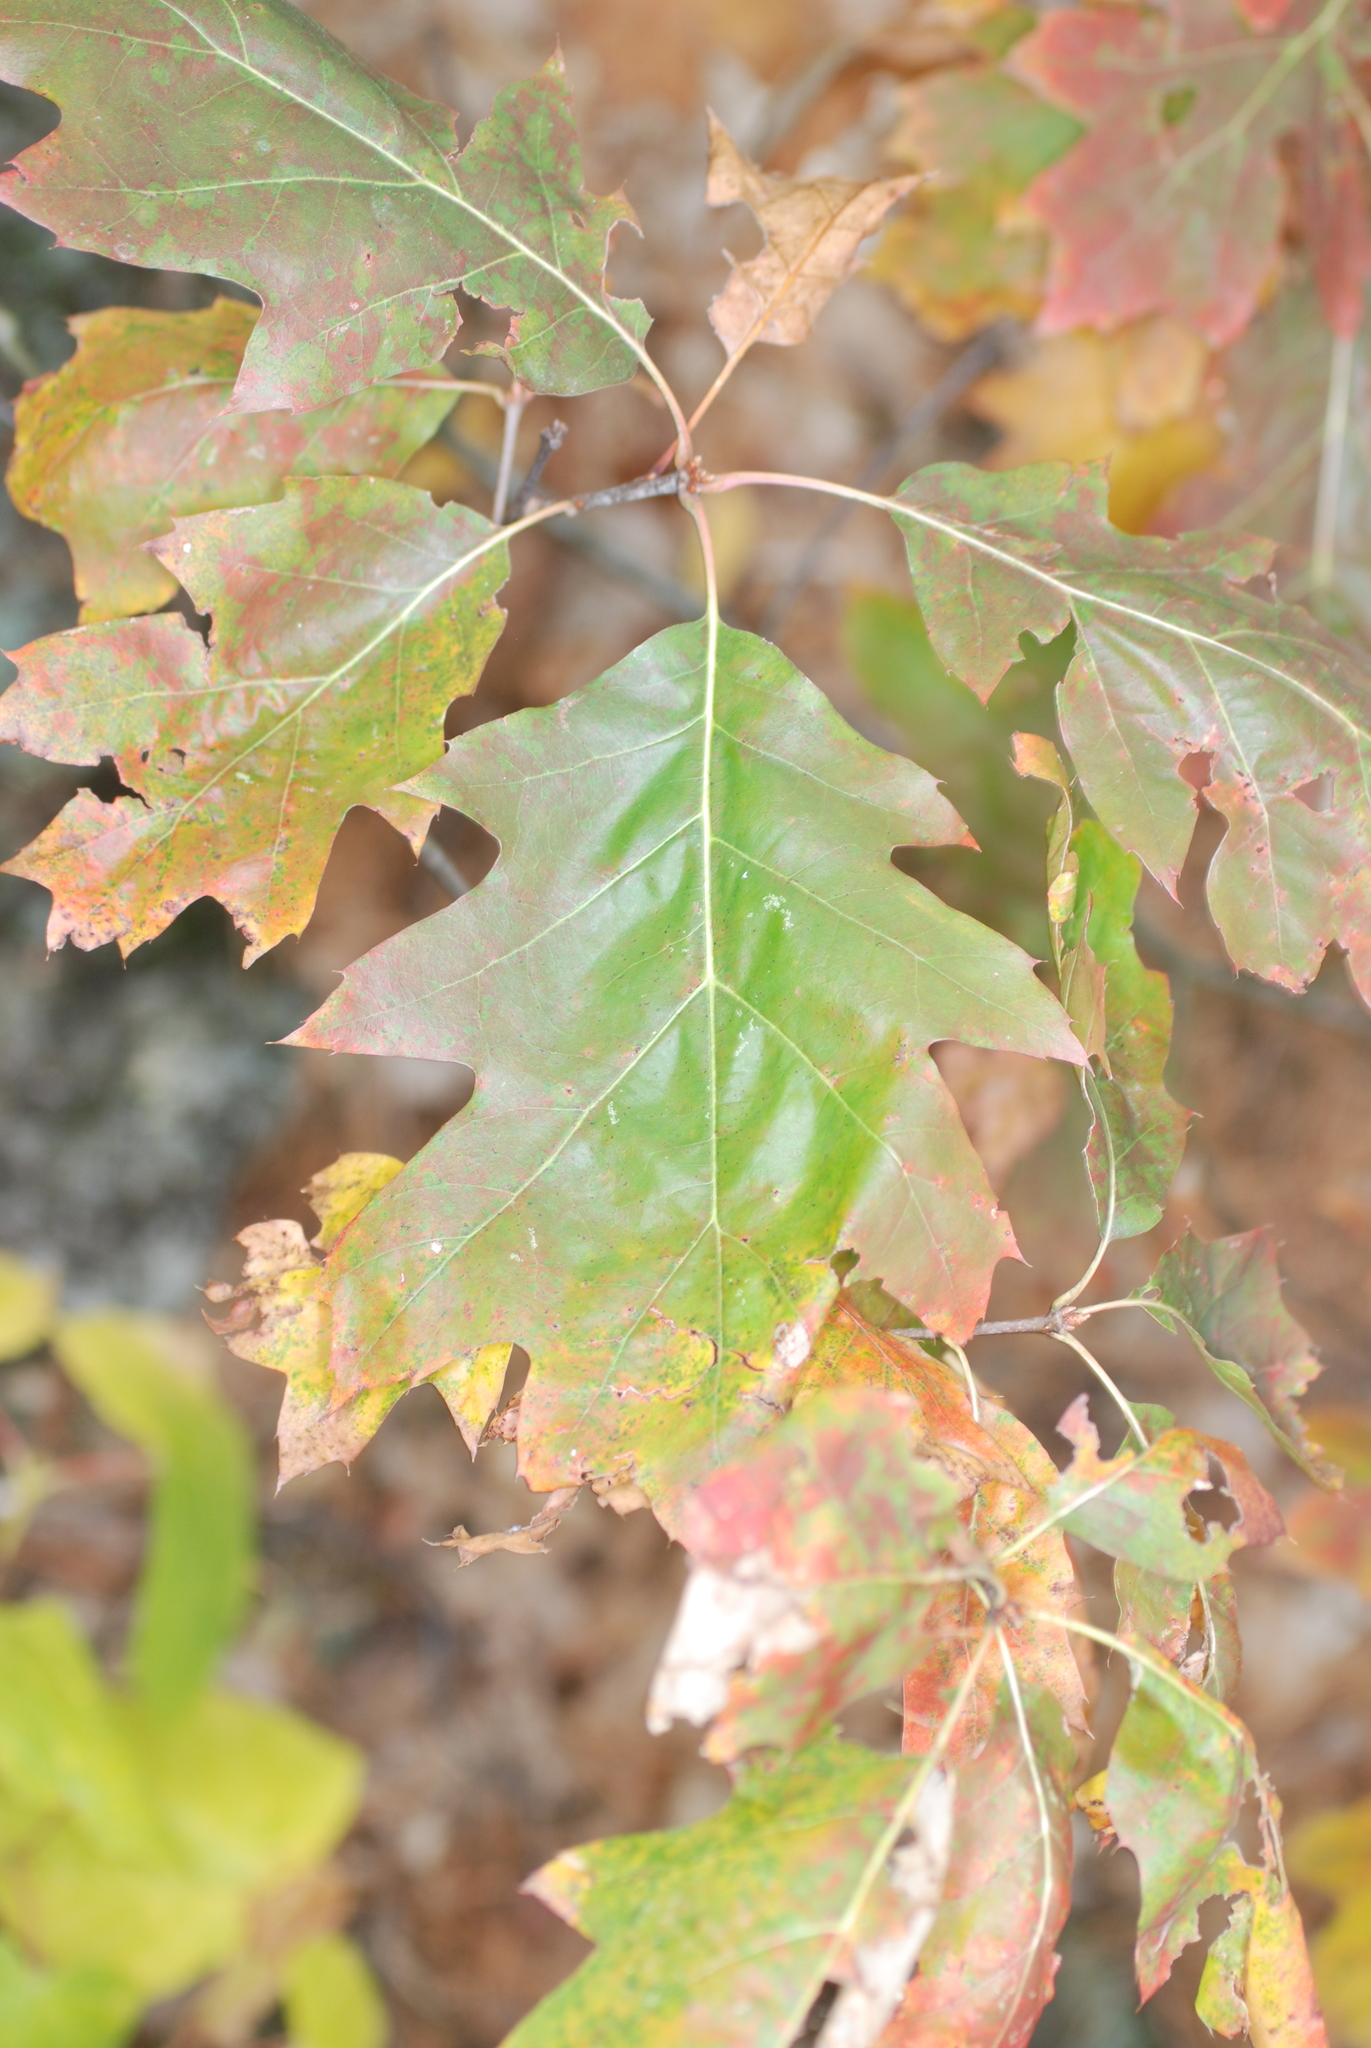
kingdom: Plantae
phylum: Tracheophyta
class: Magnoliopsida
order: Fagales
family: Fagaceae
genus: Quercus
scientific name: Quercus rubra
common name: Red oak
